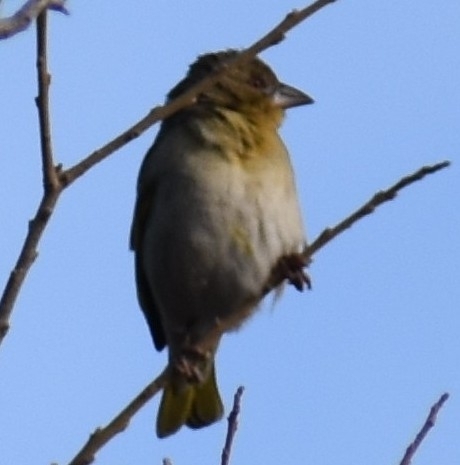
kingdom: Animalia
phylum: Chordata
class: Aves
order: Passeriformes
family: Ploceidae
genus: Ploceus
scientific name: Ploceus velatus
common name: Southern masked weaver
